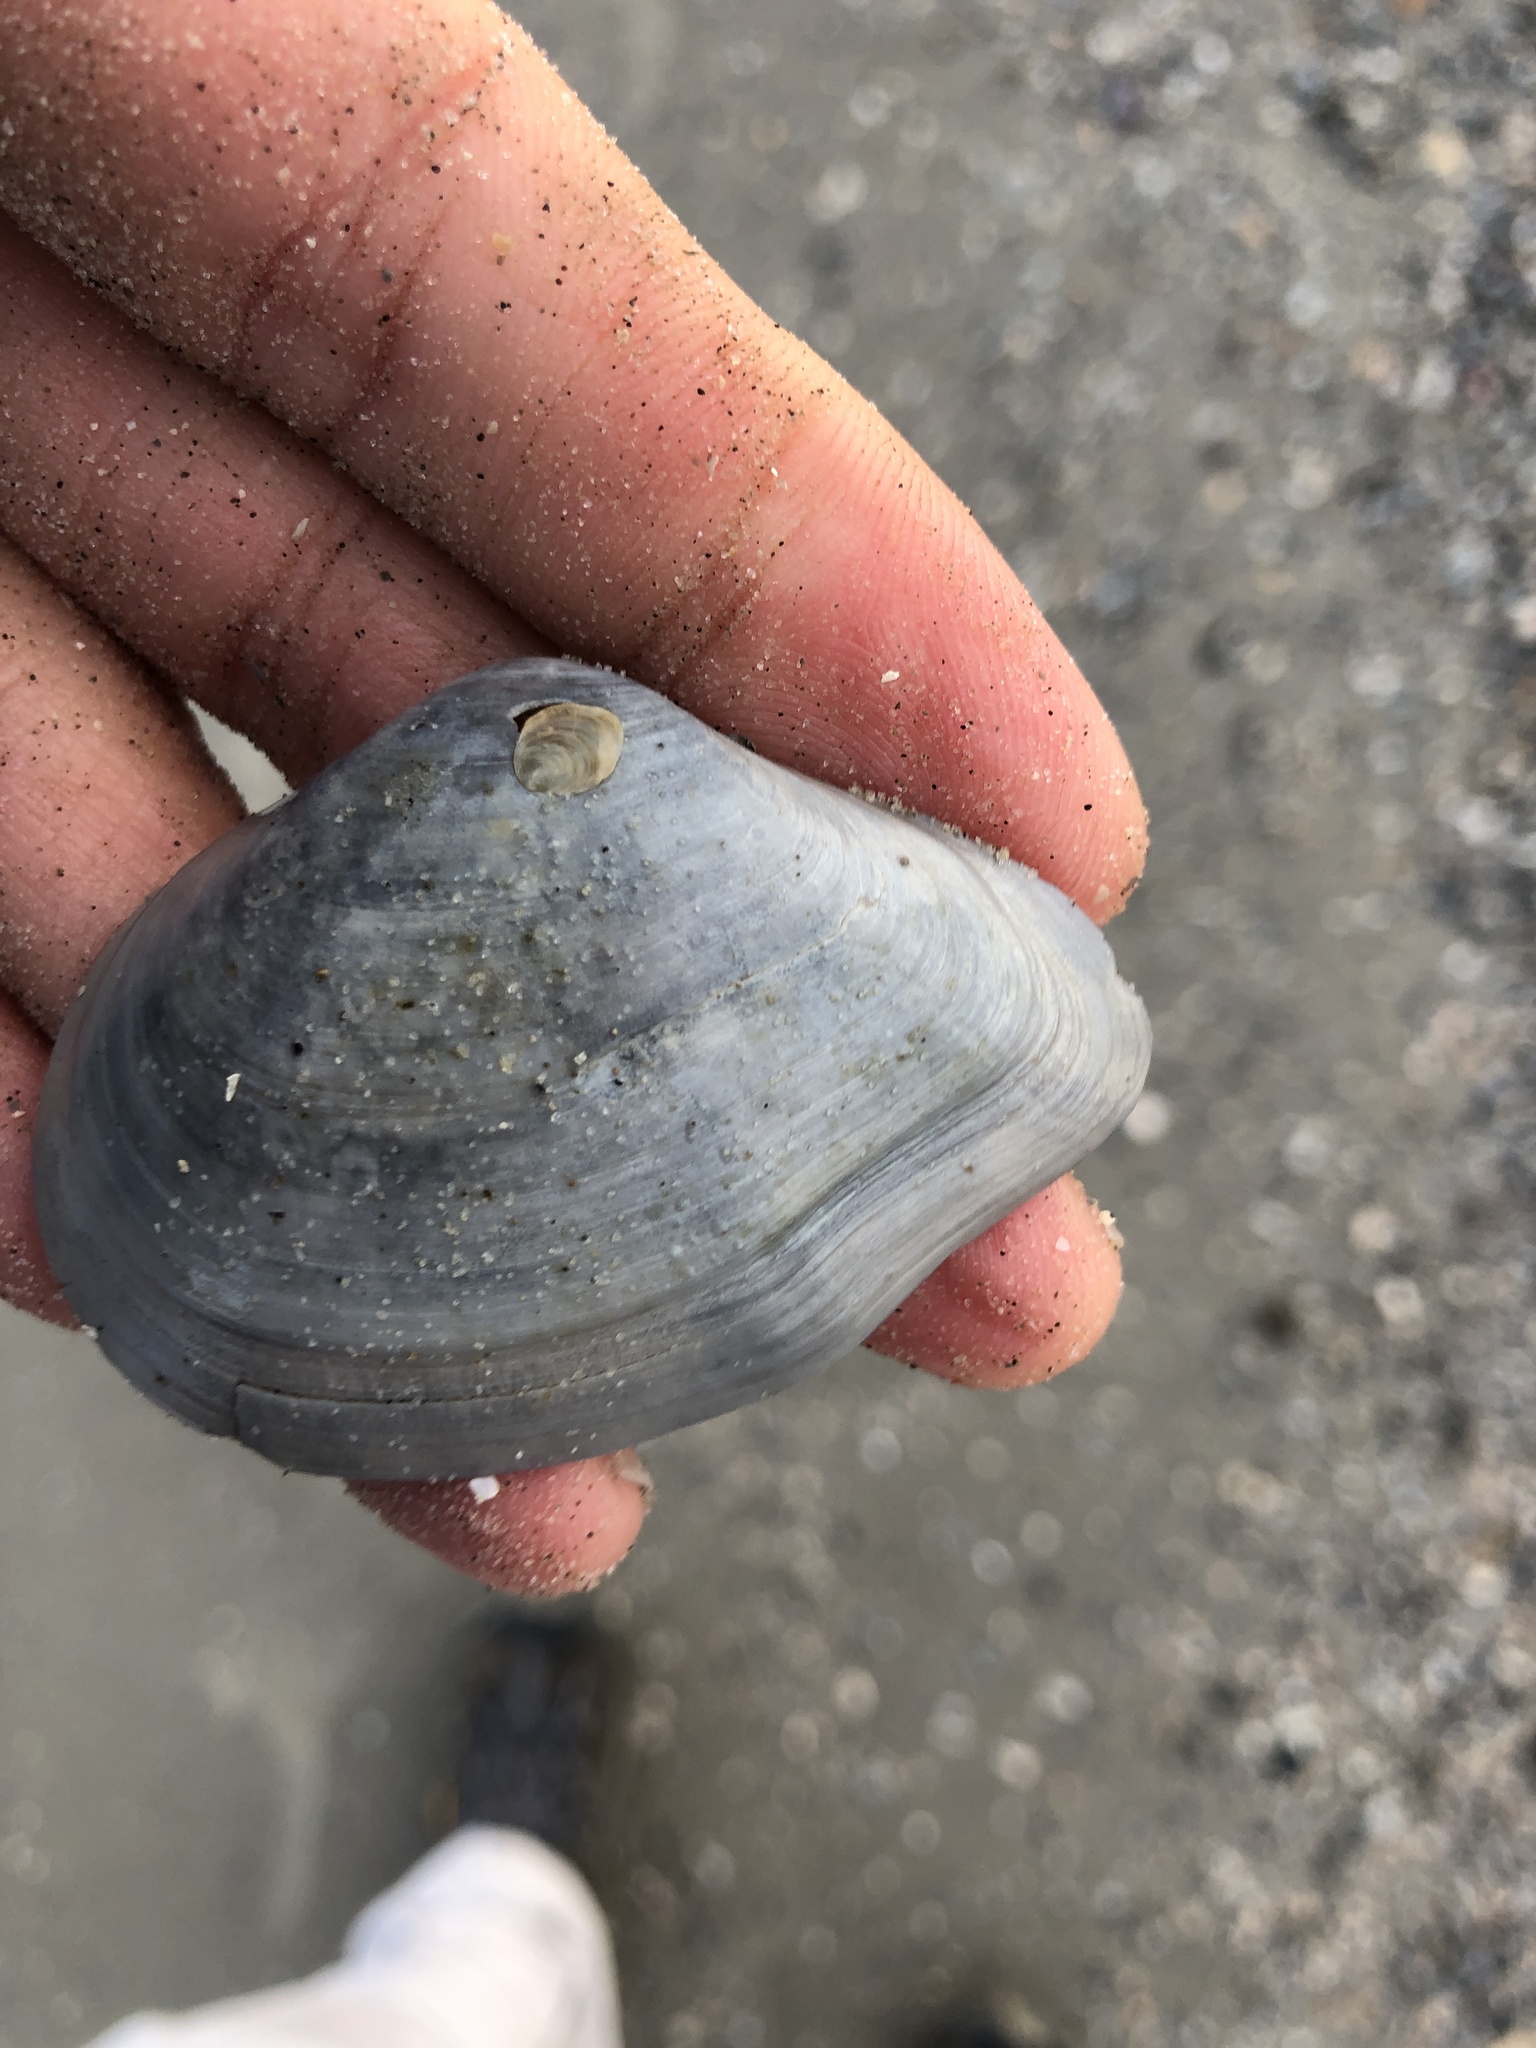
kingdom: Animalia
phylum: Mollusca
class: Bivalvia
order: Cardiida
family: Tellinidae
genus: Austromacoma
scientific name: Austromacoma constricta
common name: Constricted macoma
